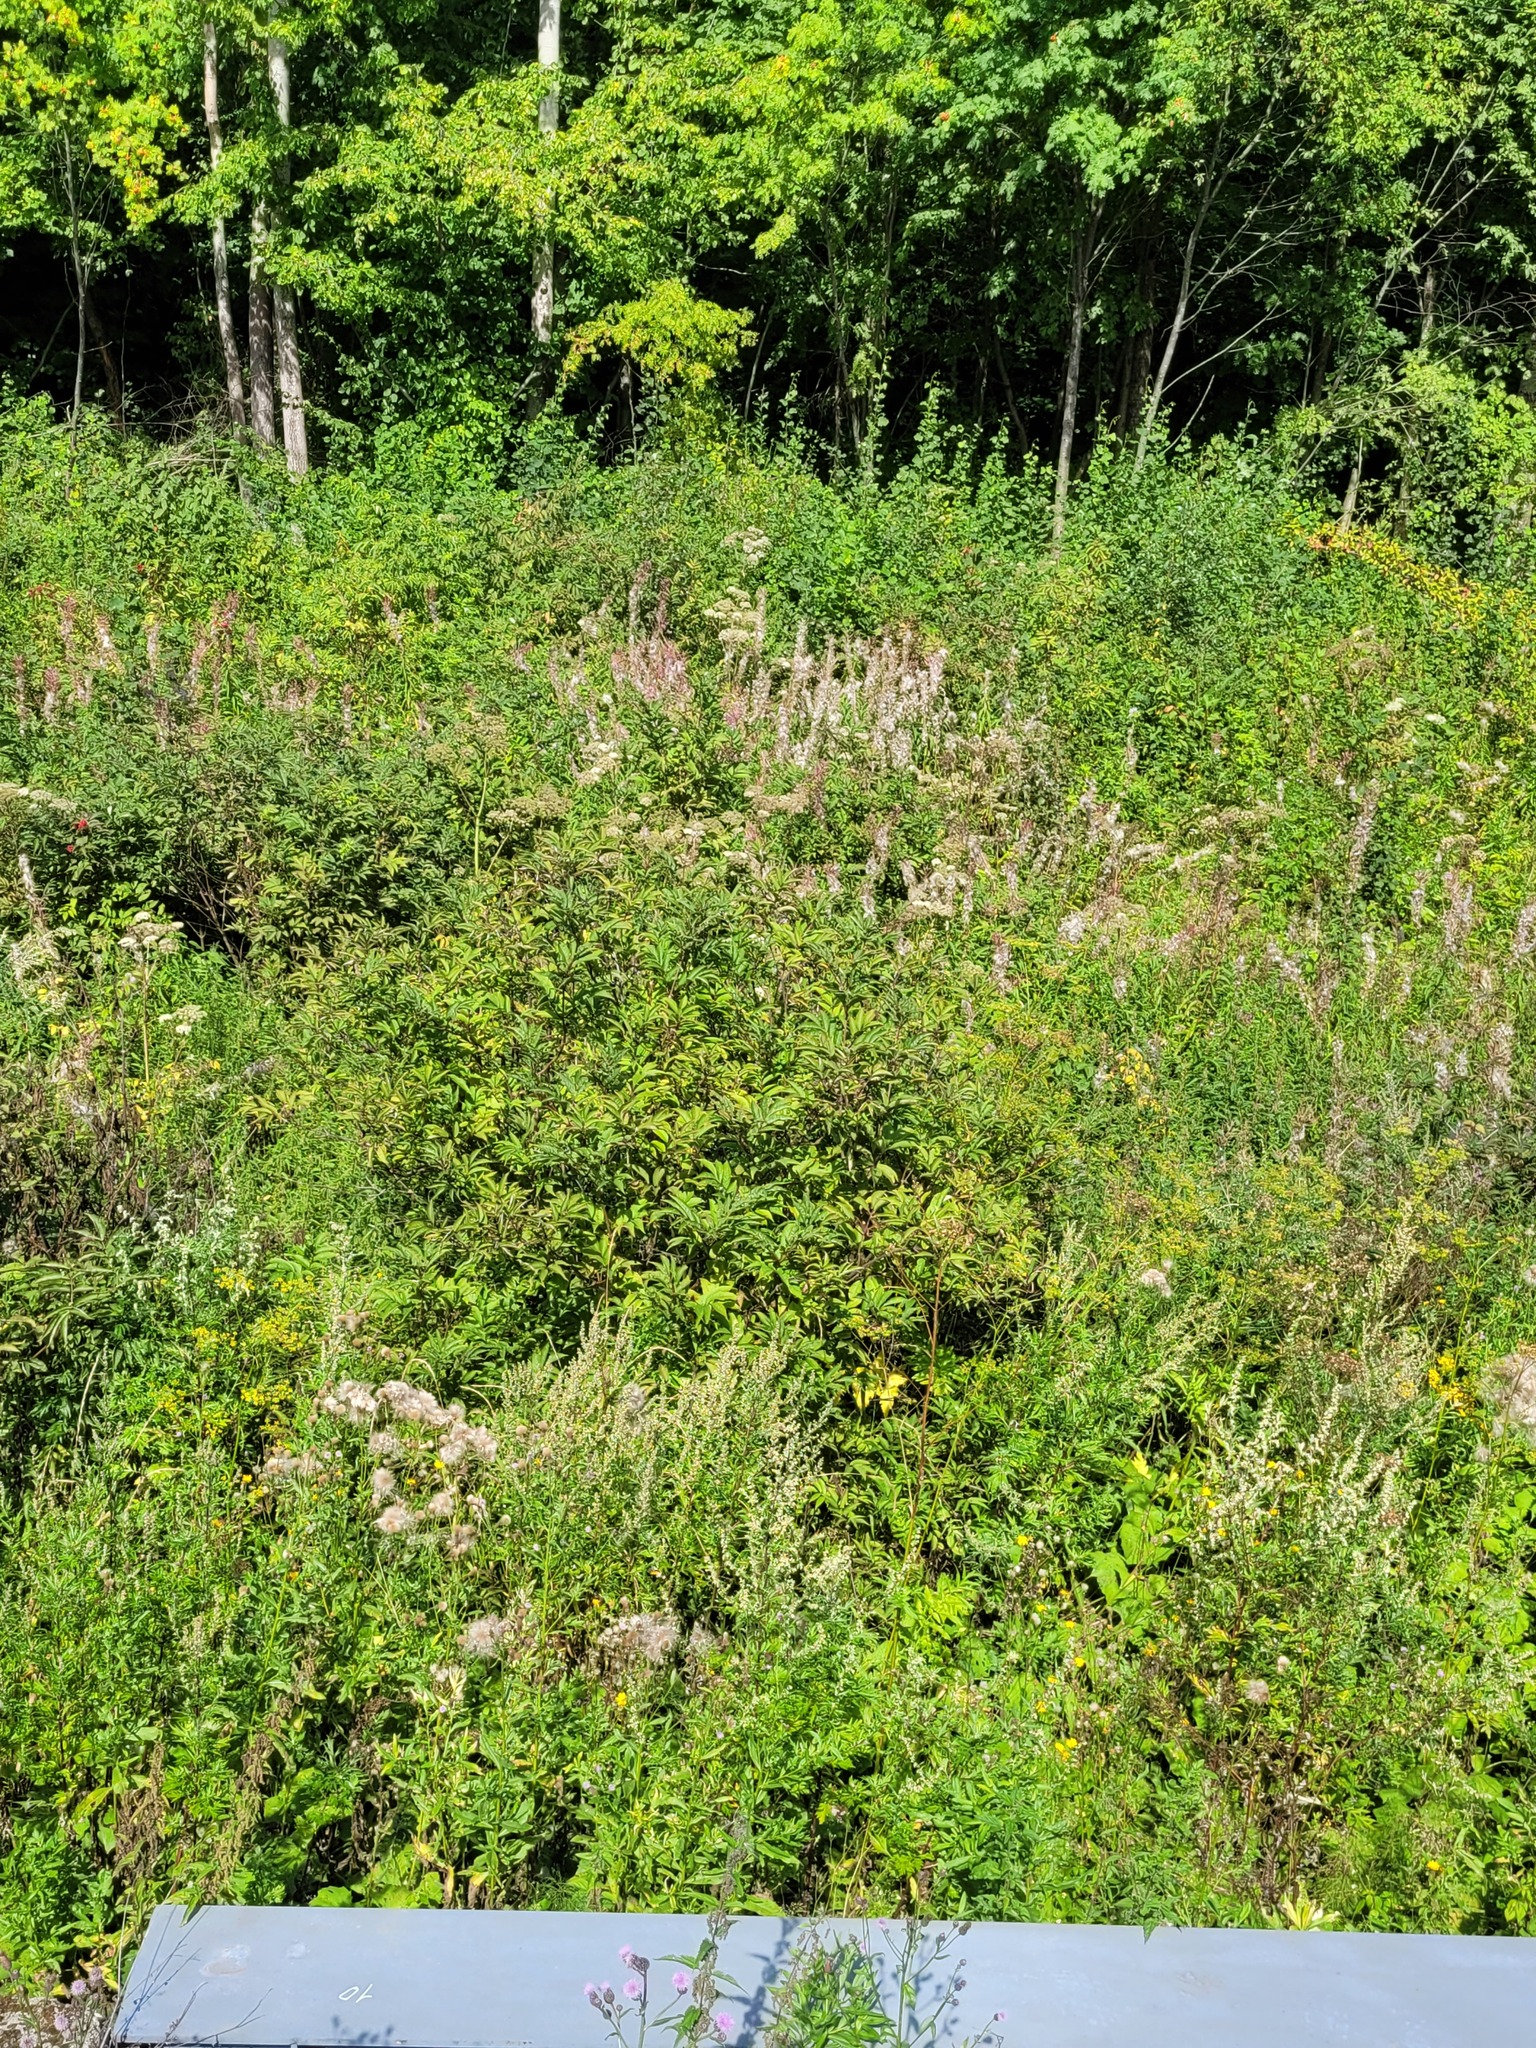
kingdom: Plantae
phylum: Tracheophyta
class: Magnoliopsida
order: Dipsacales
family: Viburnaceae
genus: Sambucus
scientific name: Sambucus racemosa
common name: Red-berried elder
